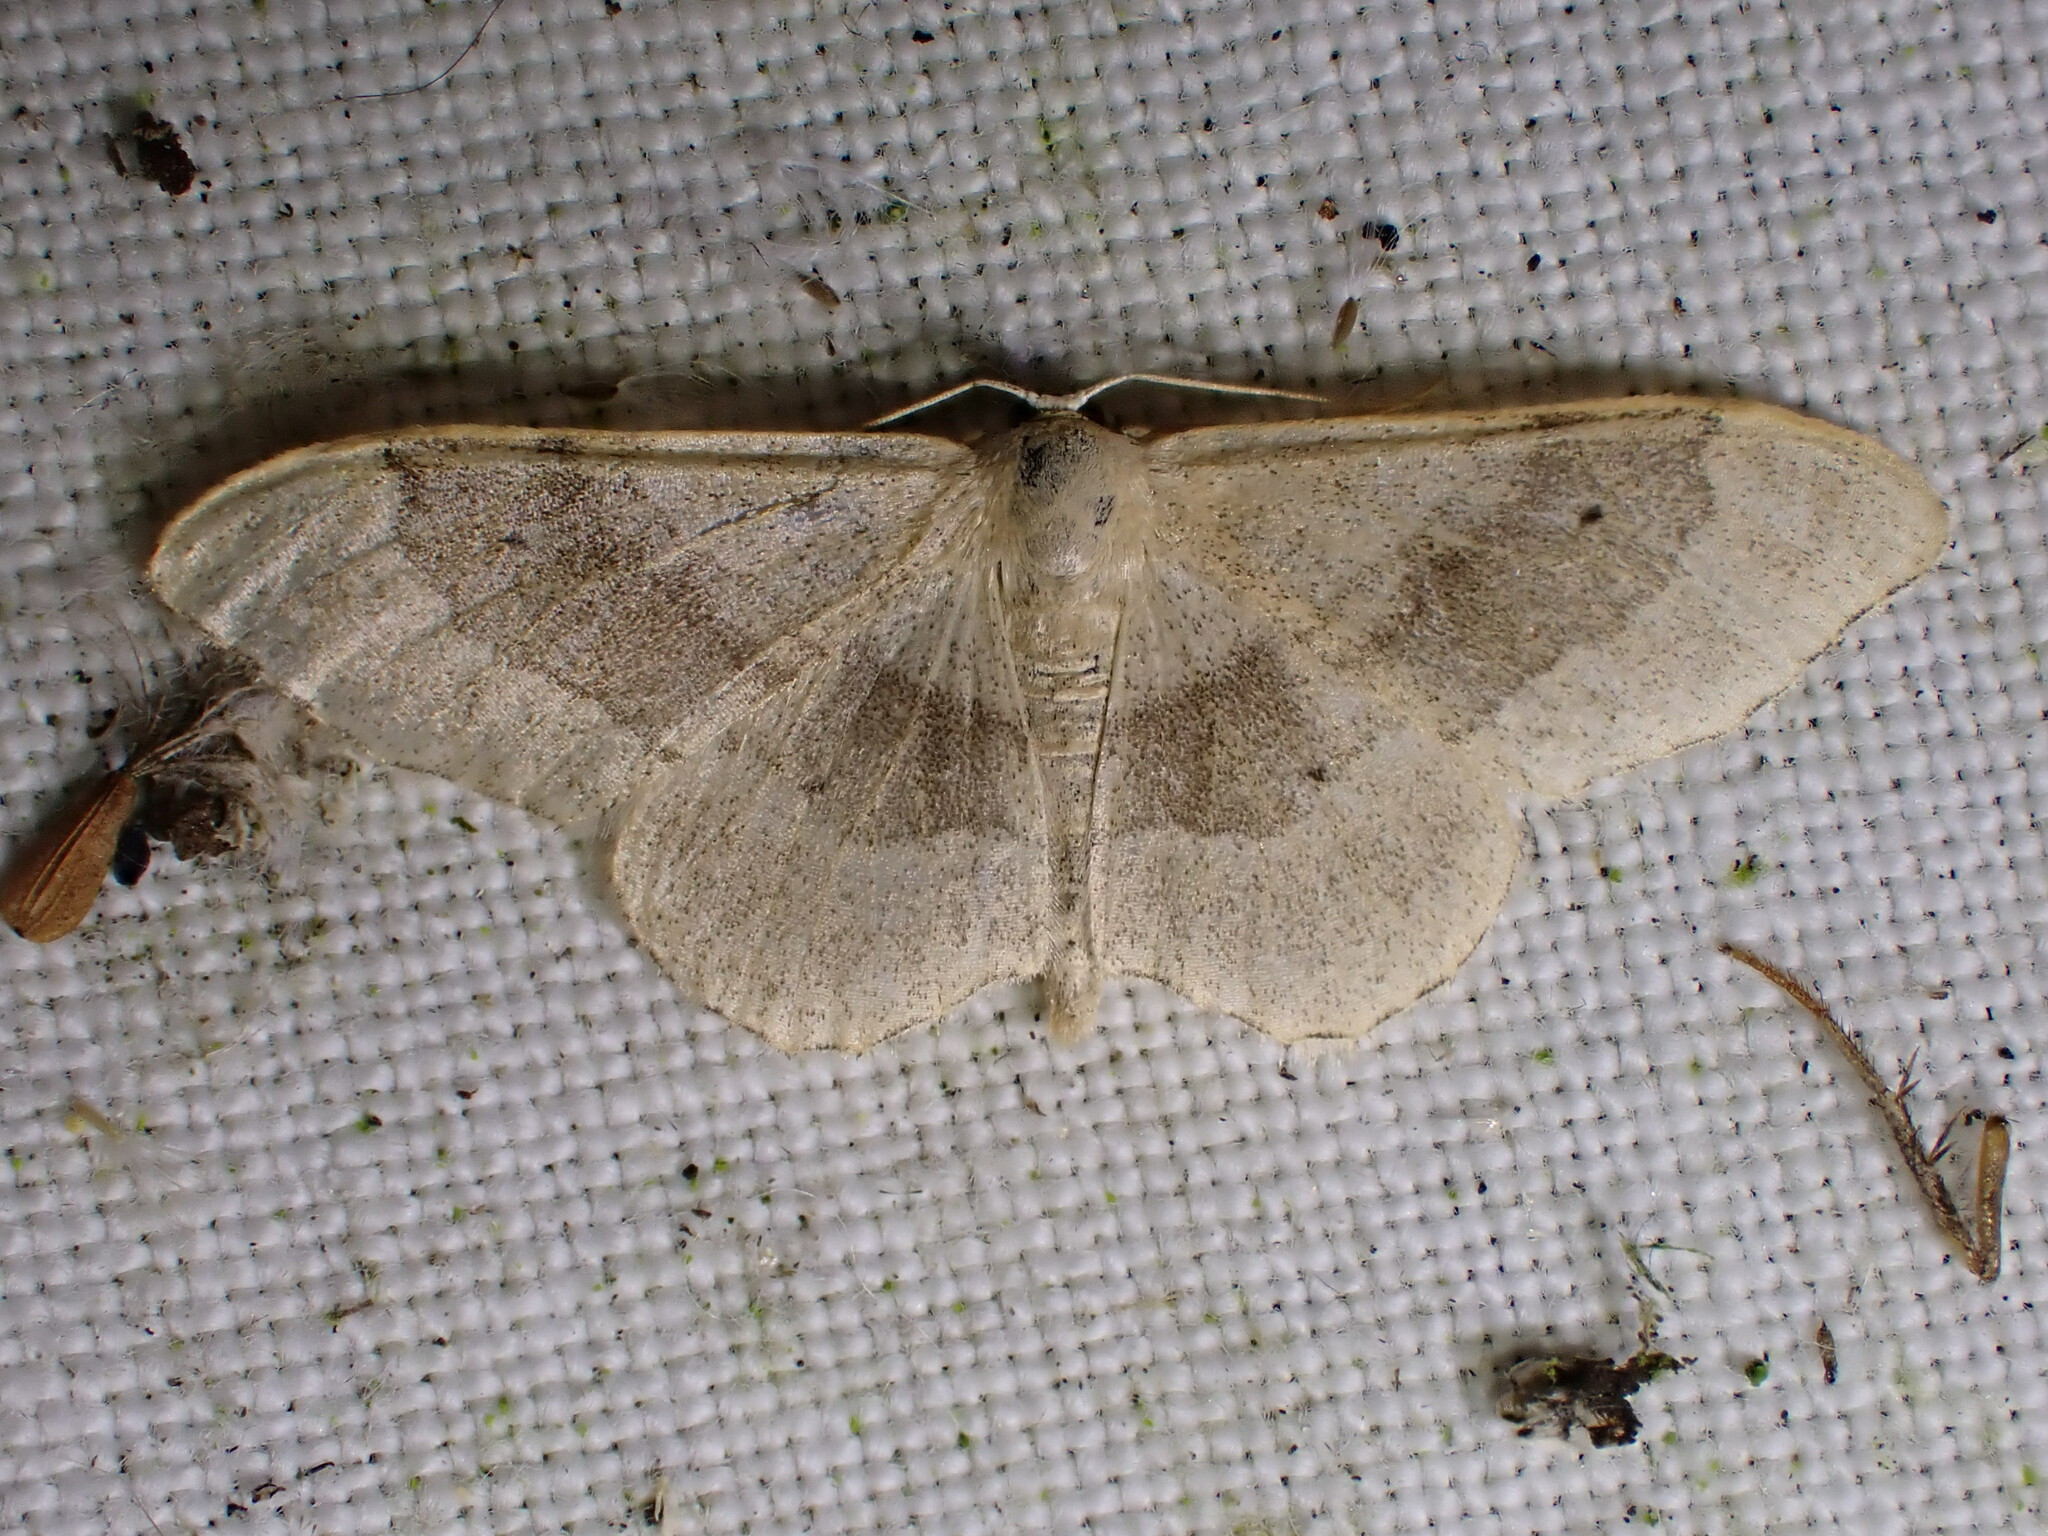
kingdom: Animalia
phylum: Arthropoda
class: Insecta
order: Lepidoptera
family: Geometridae
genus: Idaea
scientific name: Idaea aversata
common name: Riband wave
